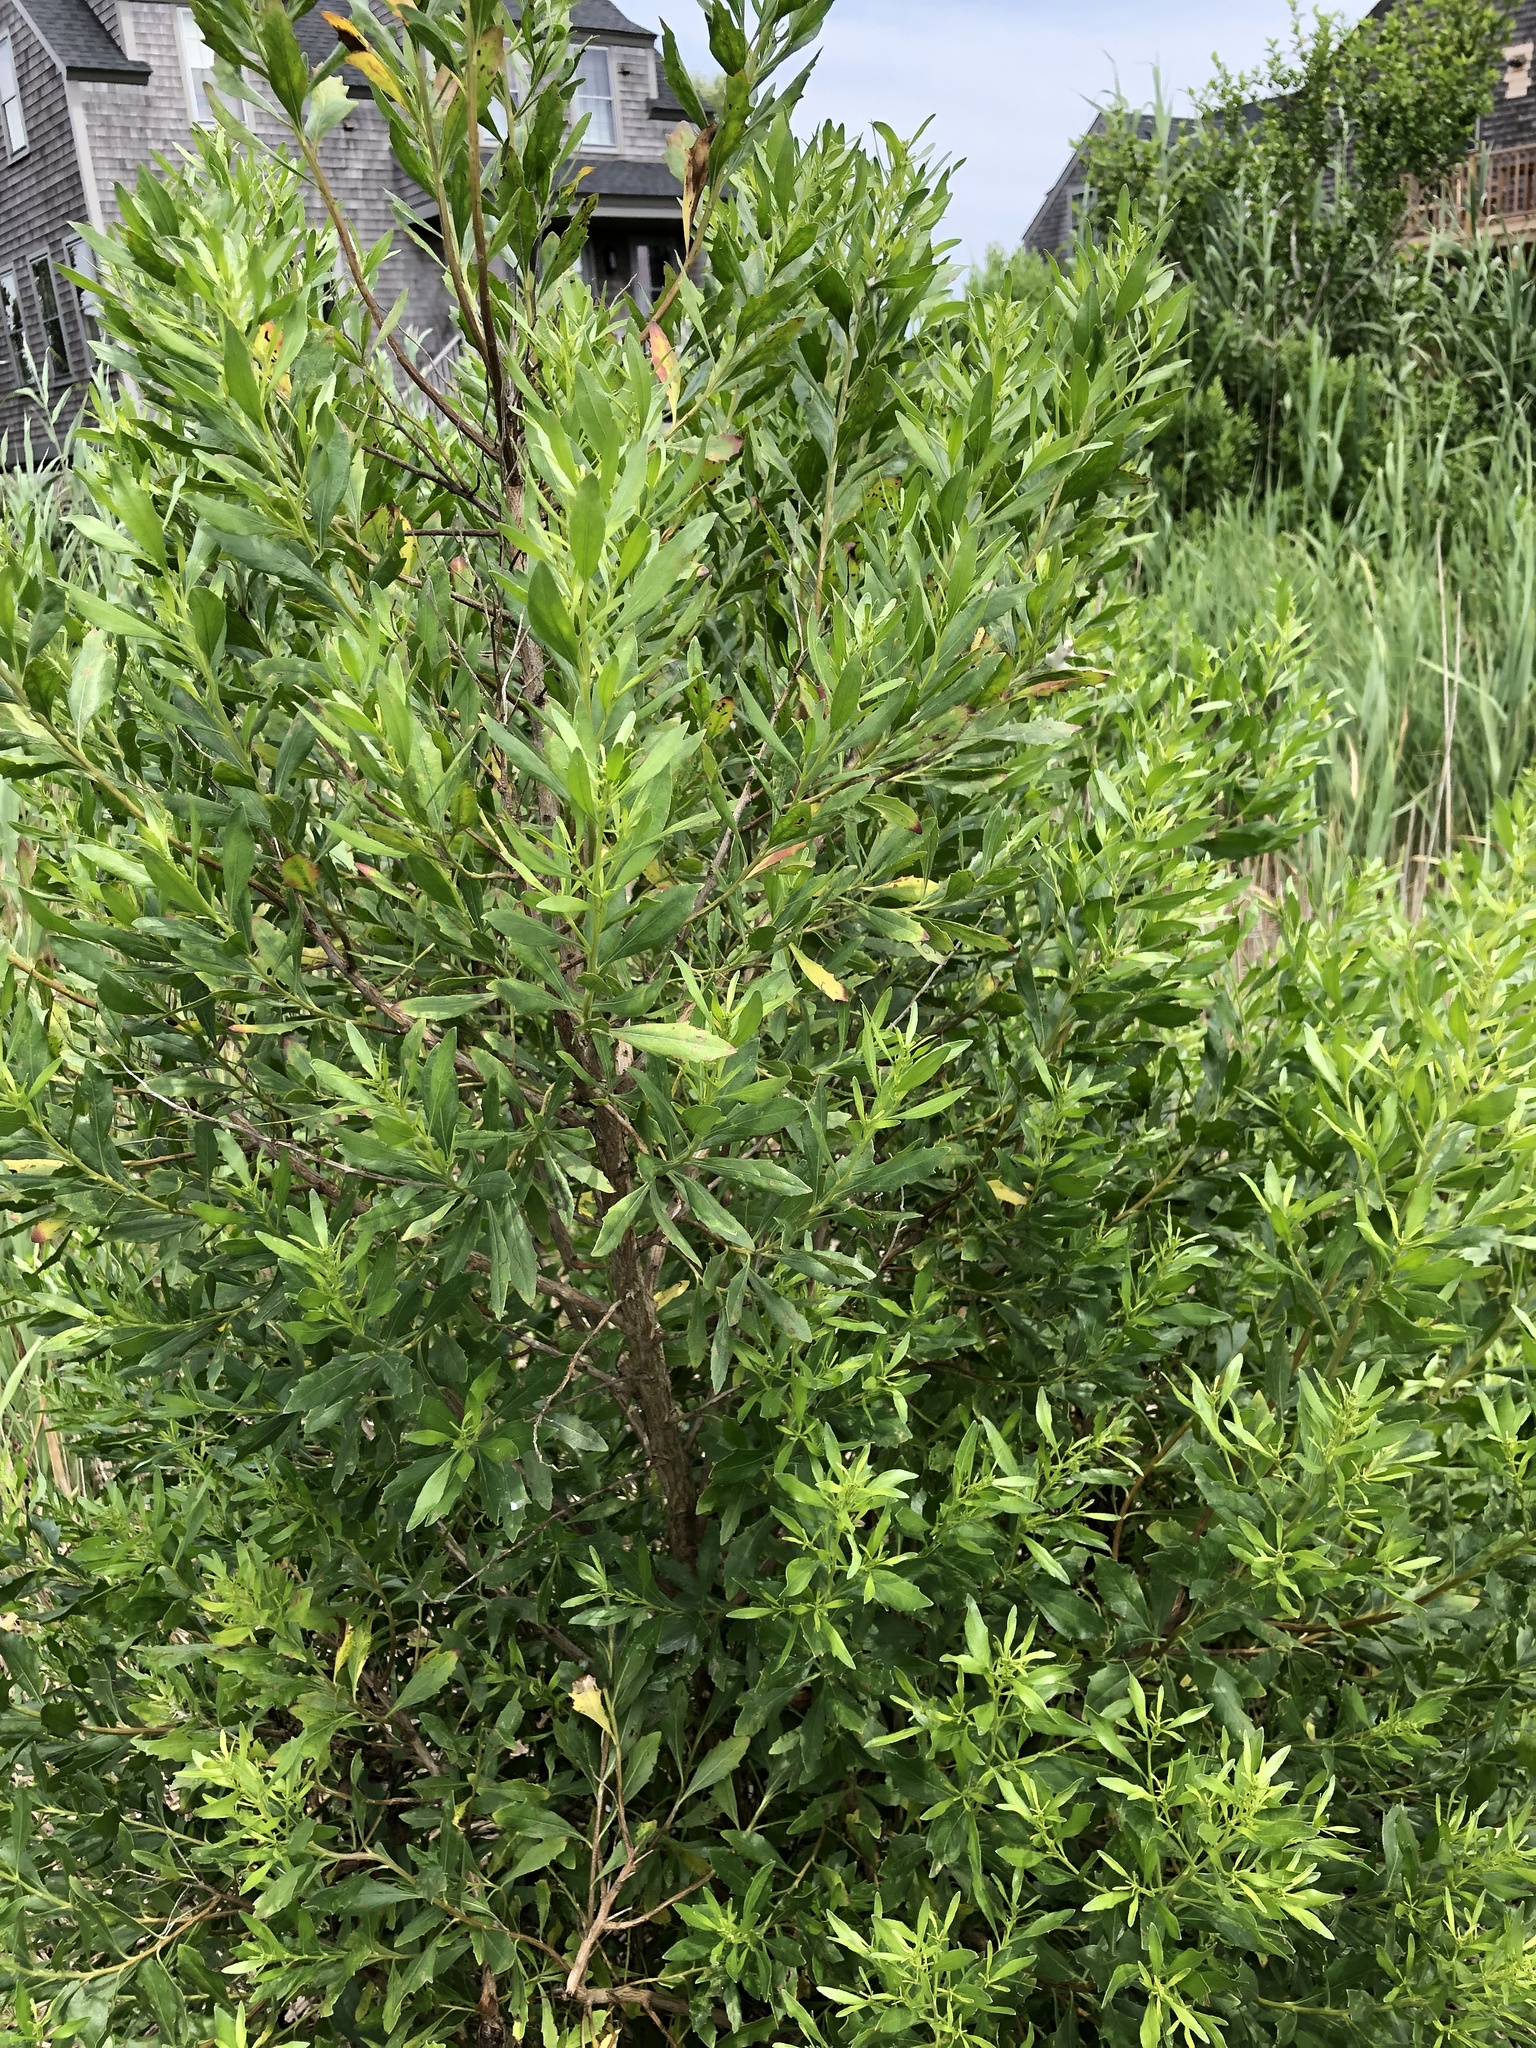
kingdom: Plantae
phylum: Tracheophyta
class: Magnoliopsida
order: Asterales
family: Asteraceae
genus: Baccharis
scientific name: Baccharis halimifolia
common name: Eastern baccharis
